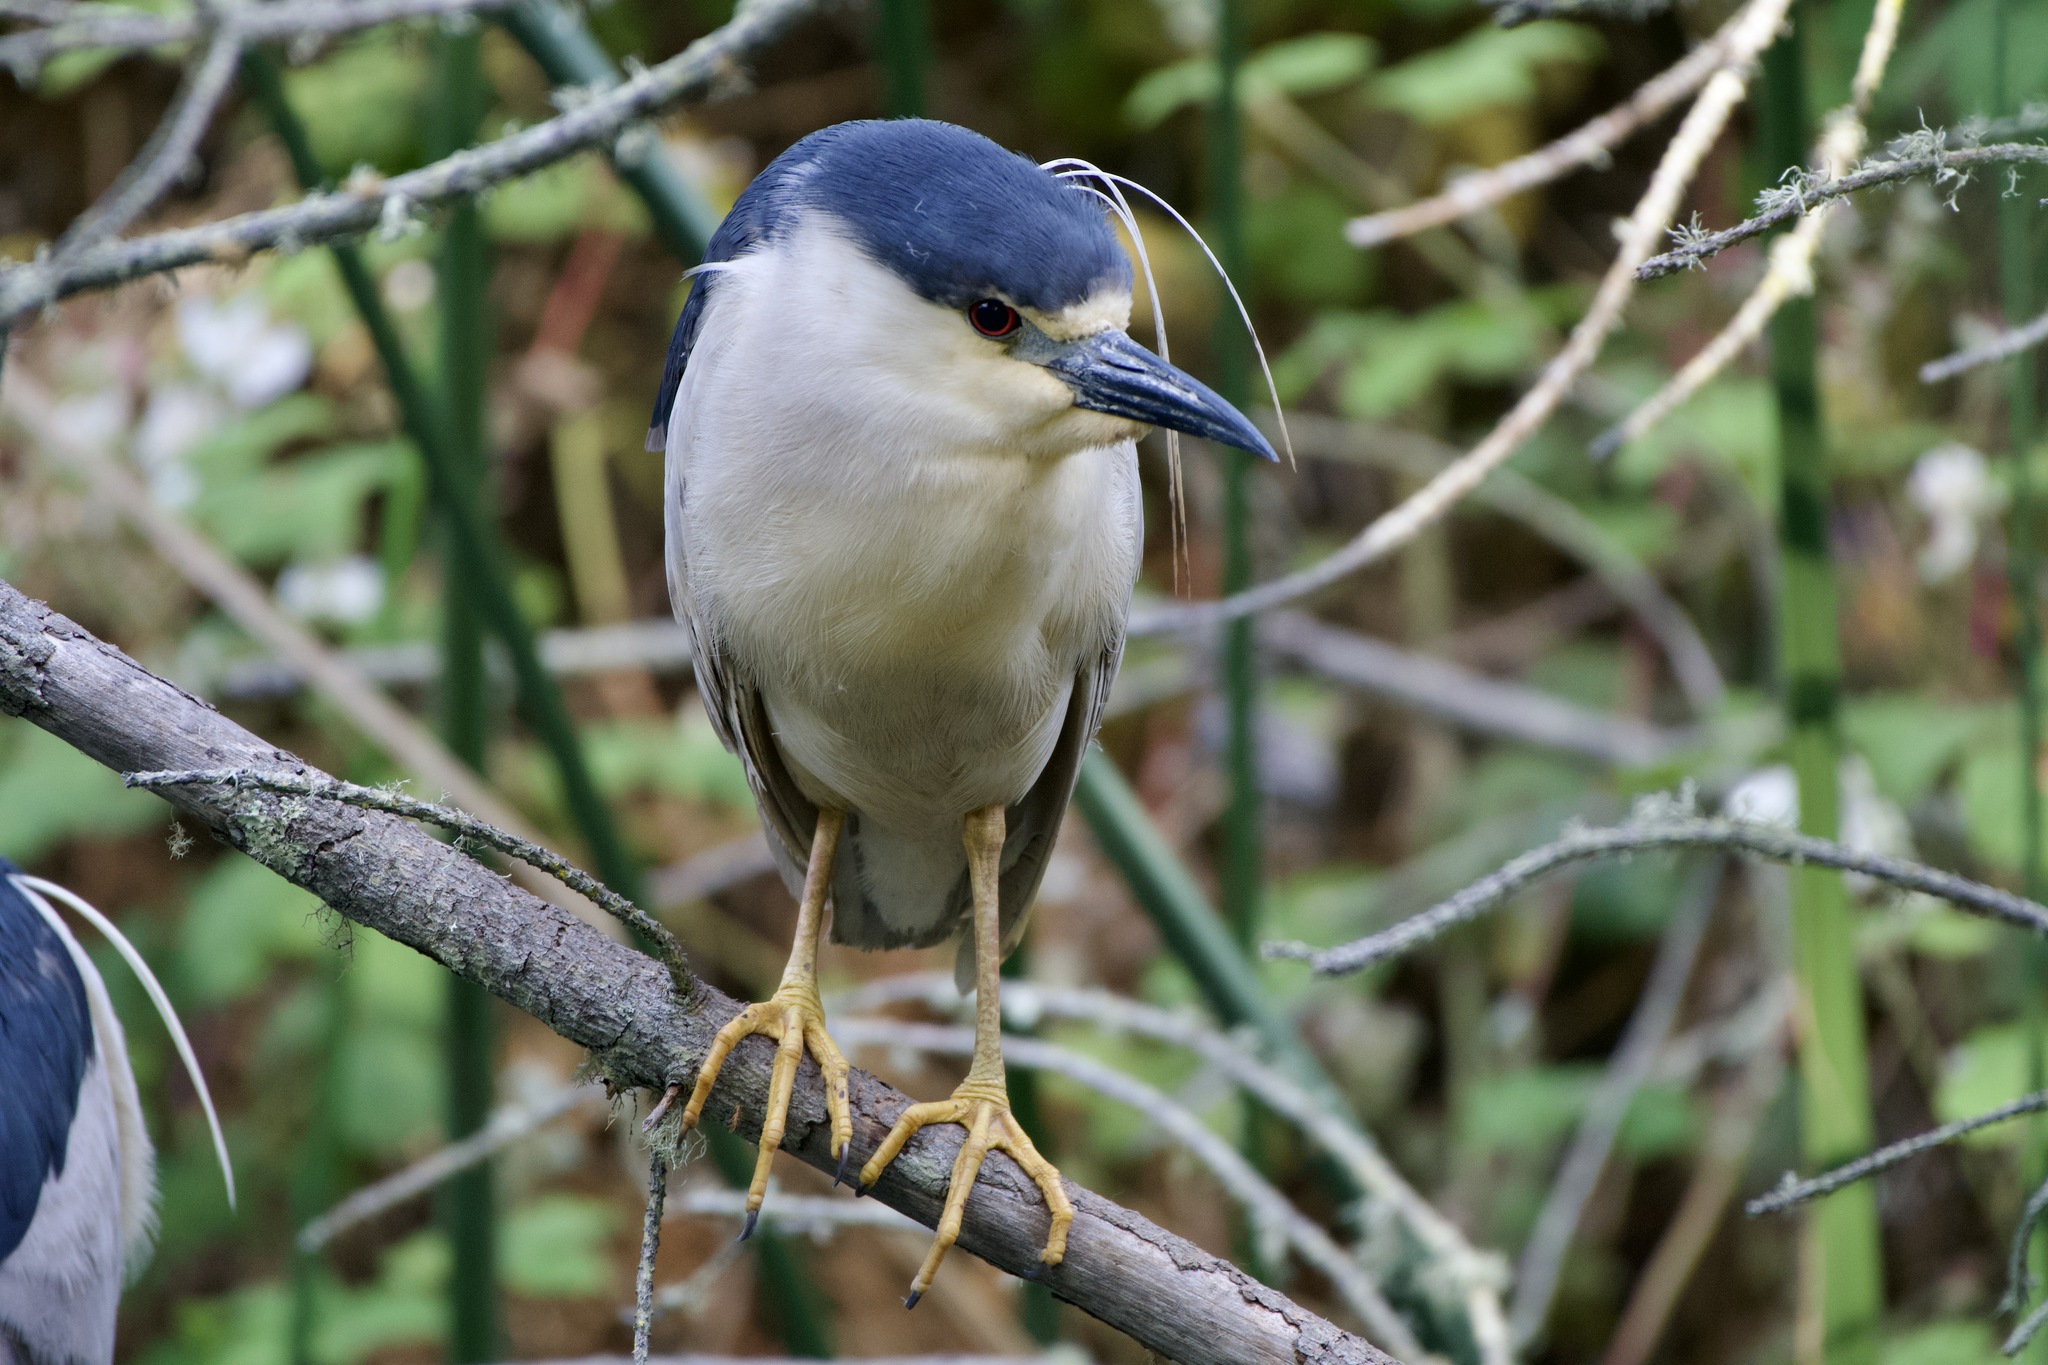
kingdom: Animalia
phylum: Chordata
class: Aves
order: Pelecaniformes
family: Ardeidae
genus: Nycticorax
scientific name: Nycticorax nycticorax
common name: Black-crowned night heron
